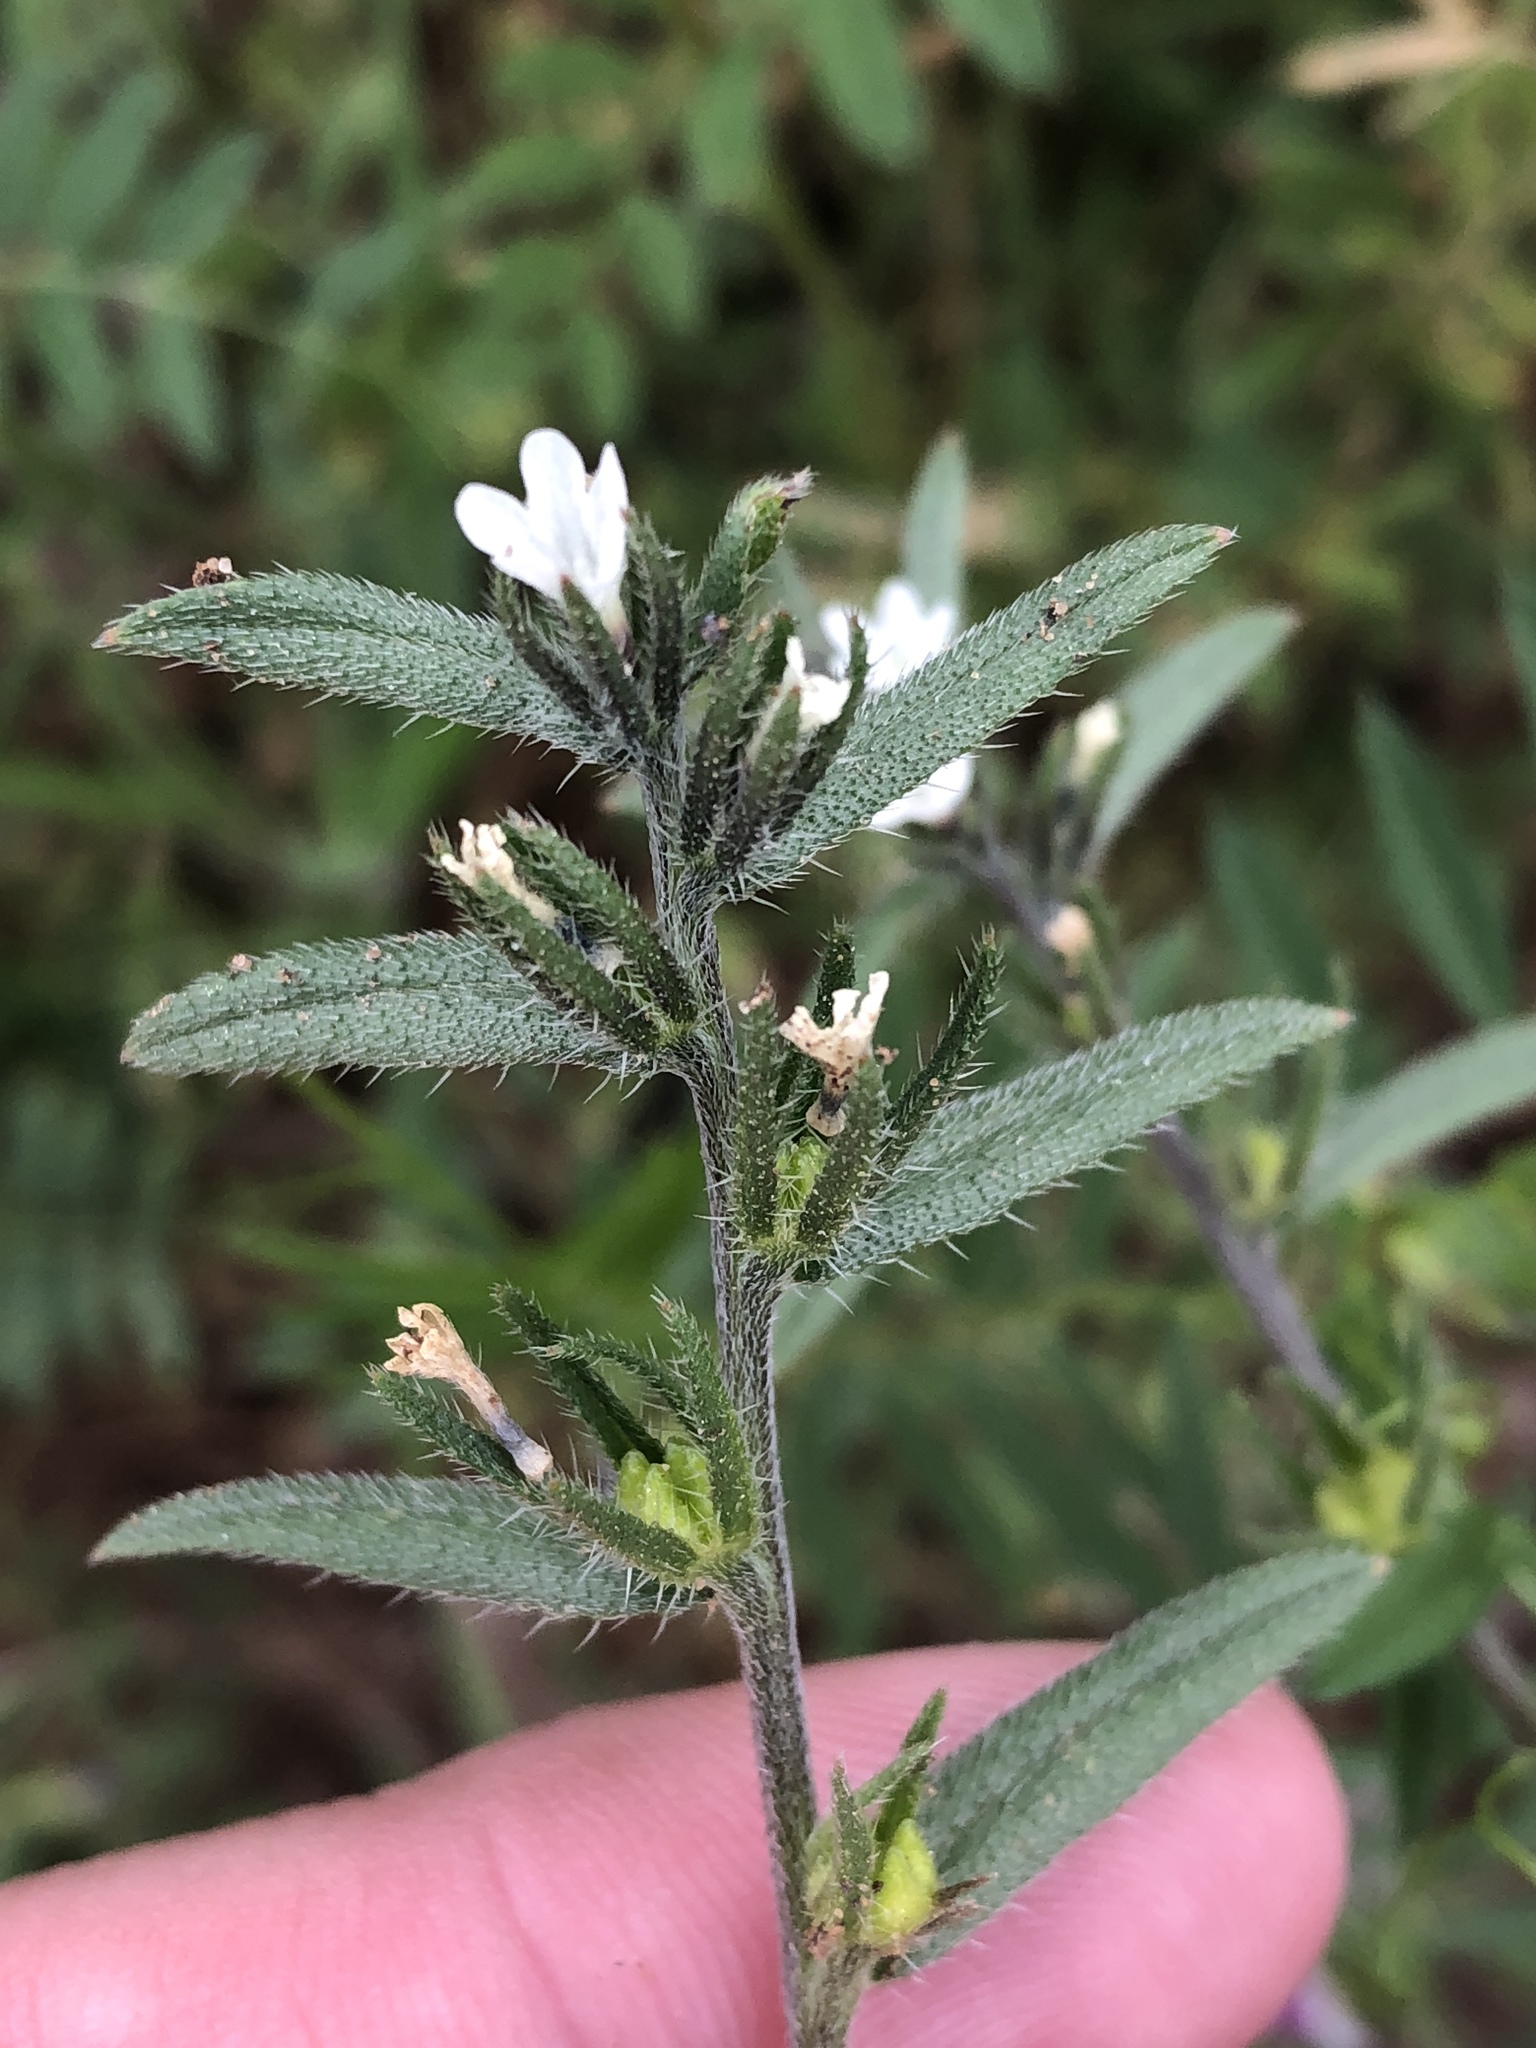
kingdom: Plantae
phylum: Tracheophyta
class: Magnoliopsida
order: Boraginales
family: Boraginaceae
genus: Buglossoides
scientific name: Buglossoides arvensis
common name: Corn gromwell
